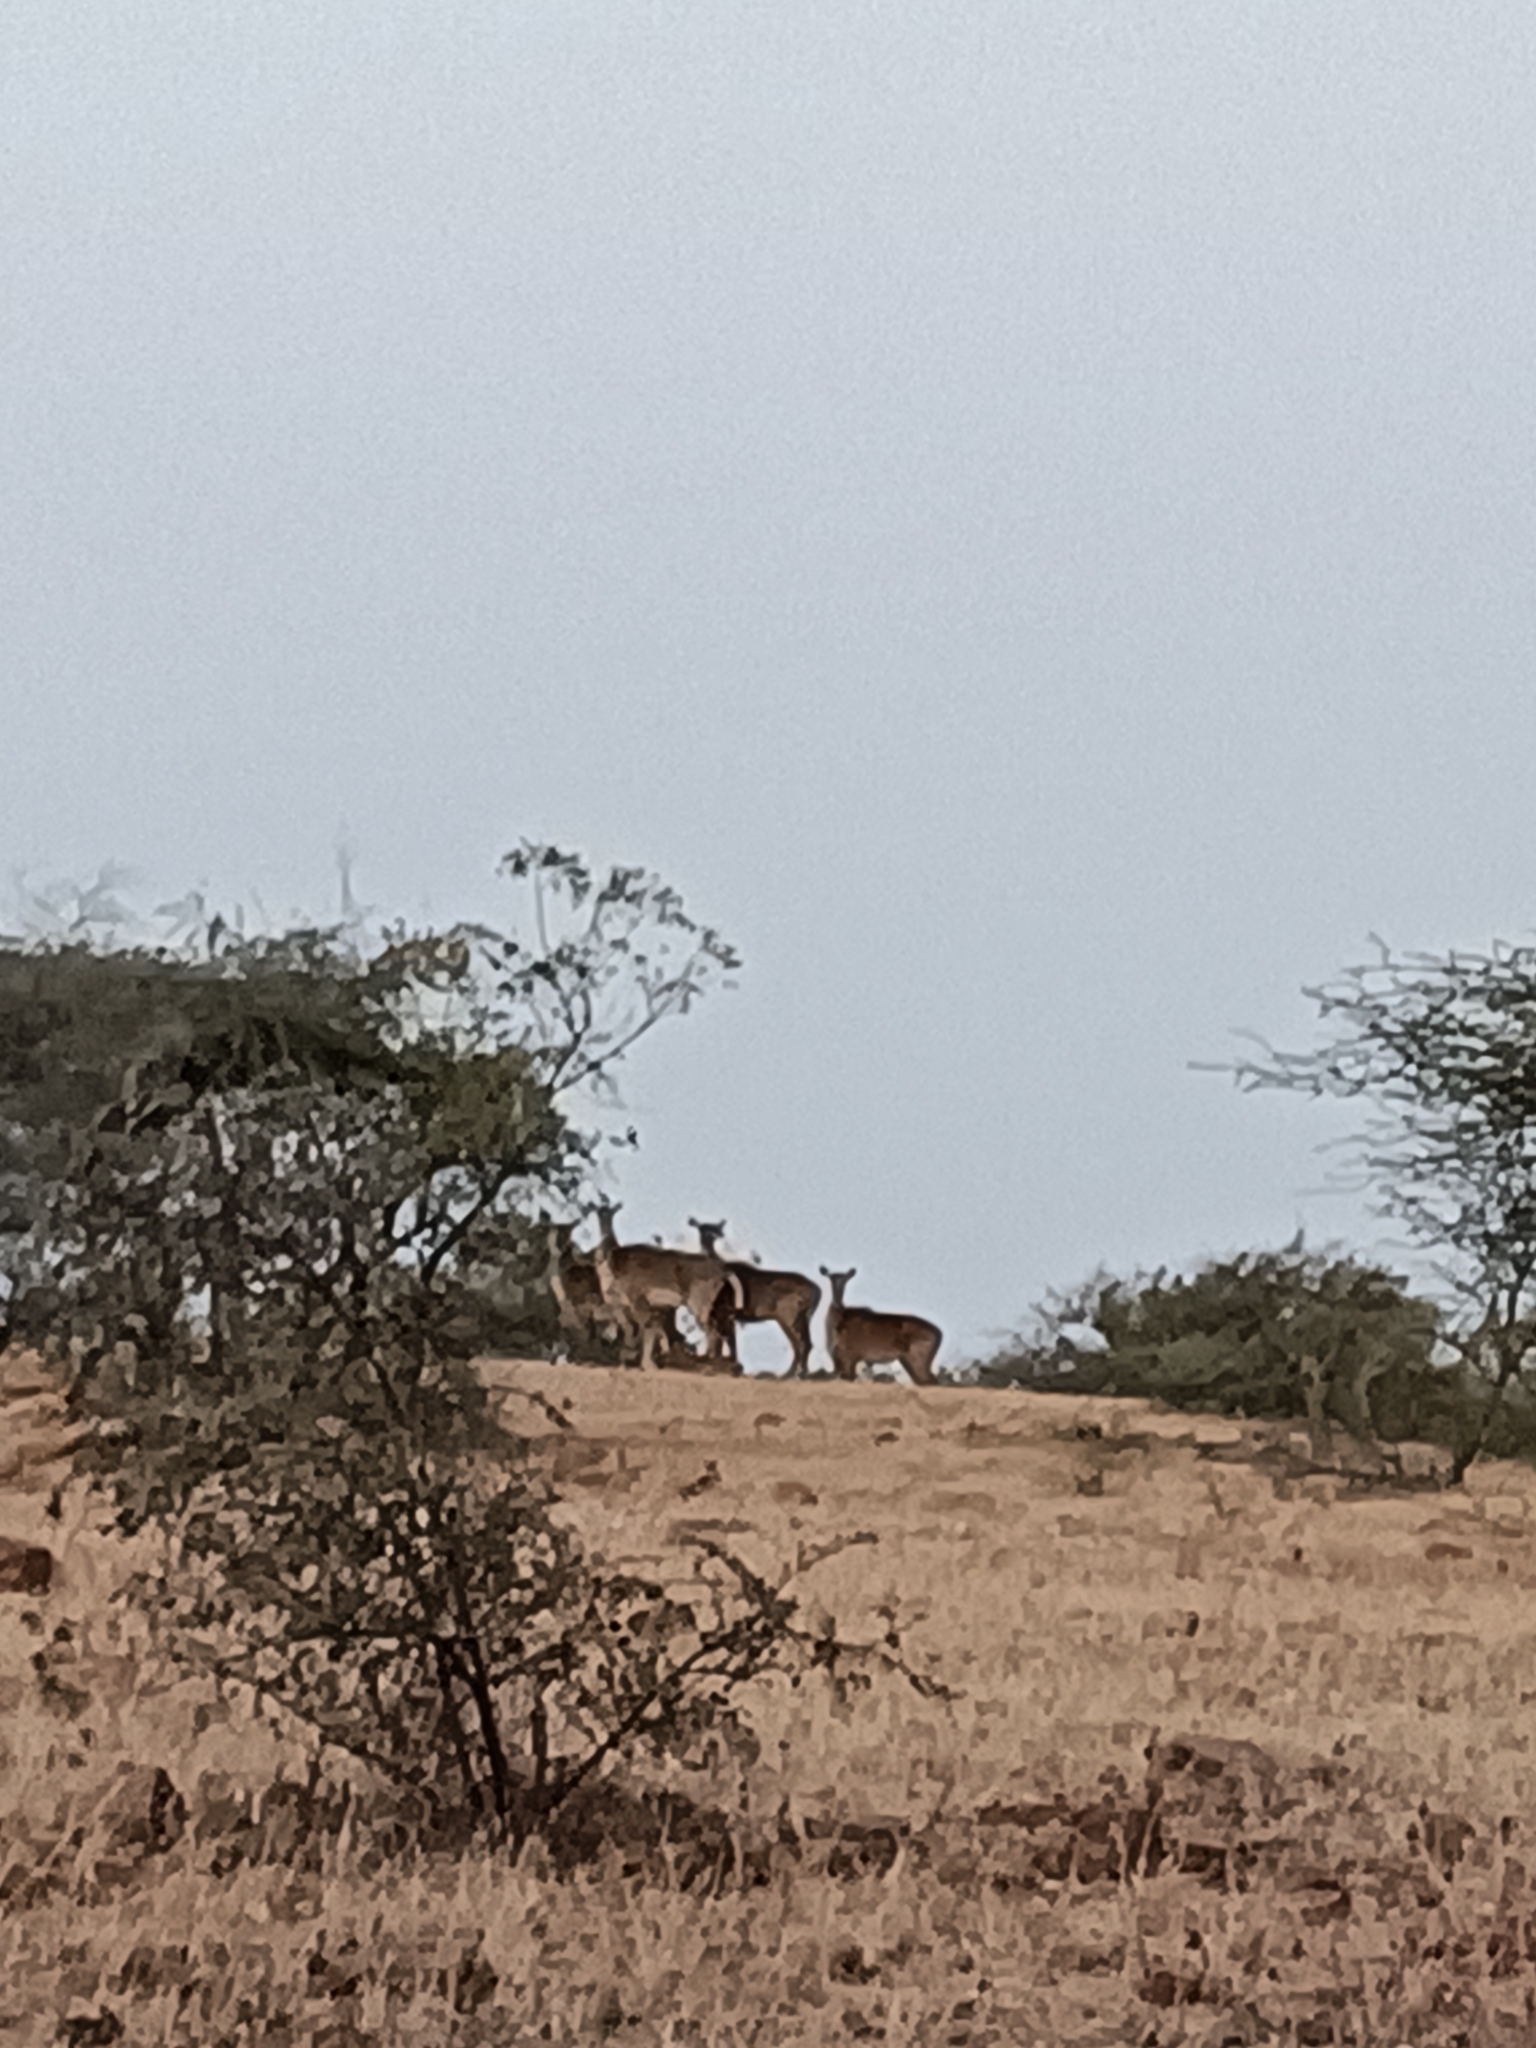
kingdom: Animalia
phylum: Chordata
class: Mammalia
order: Artiodactyla
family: Bovidae
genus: Boselaphus
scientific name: Boselaphus tragocamelus
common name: Nilgai
